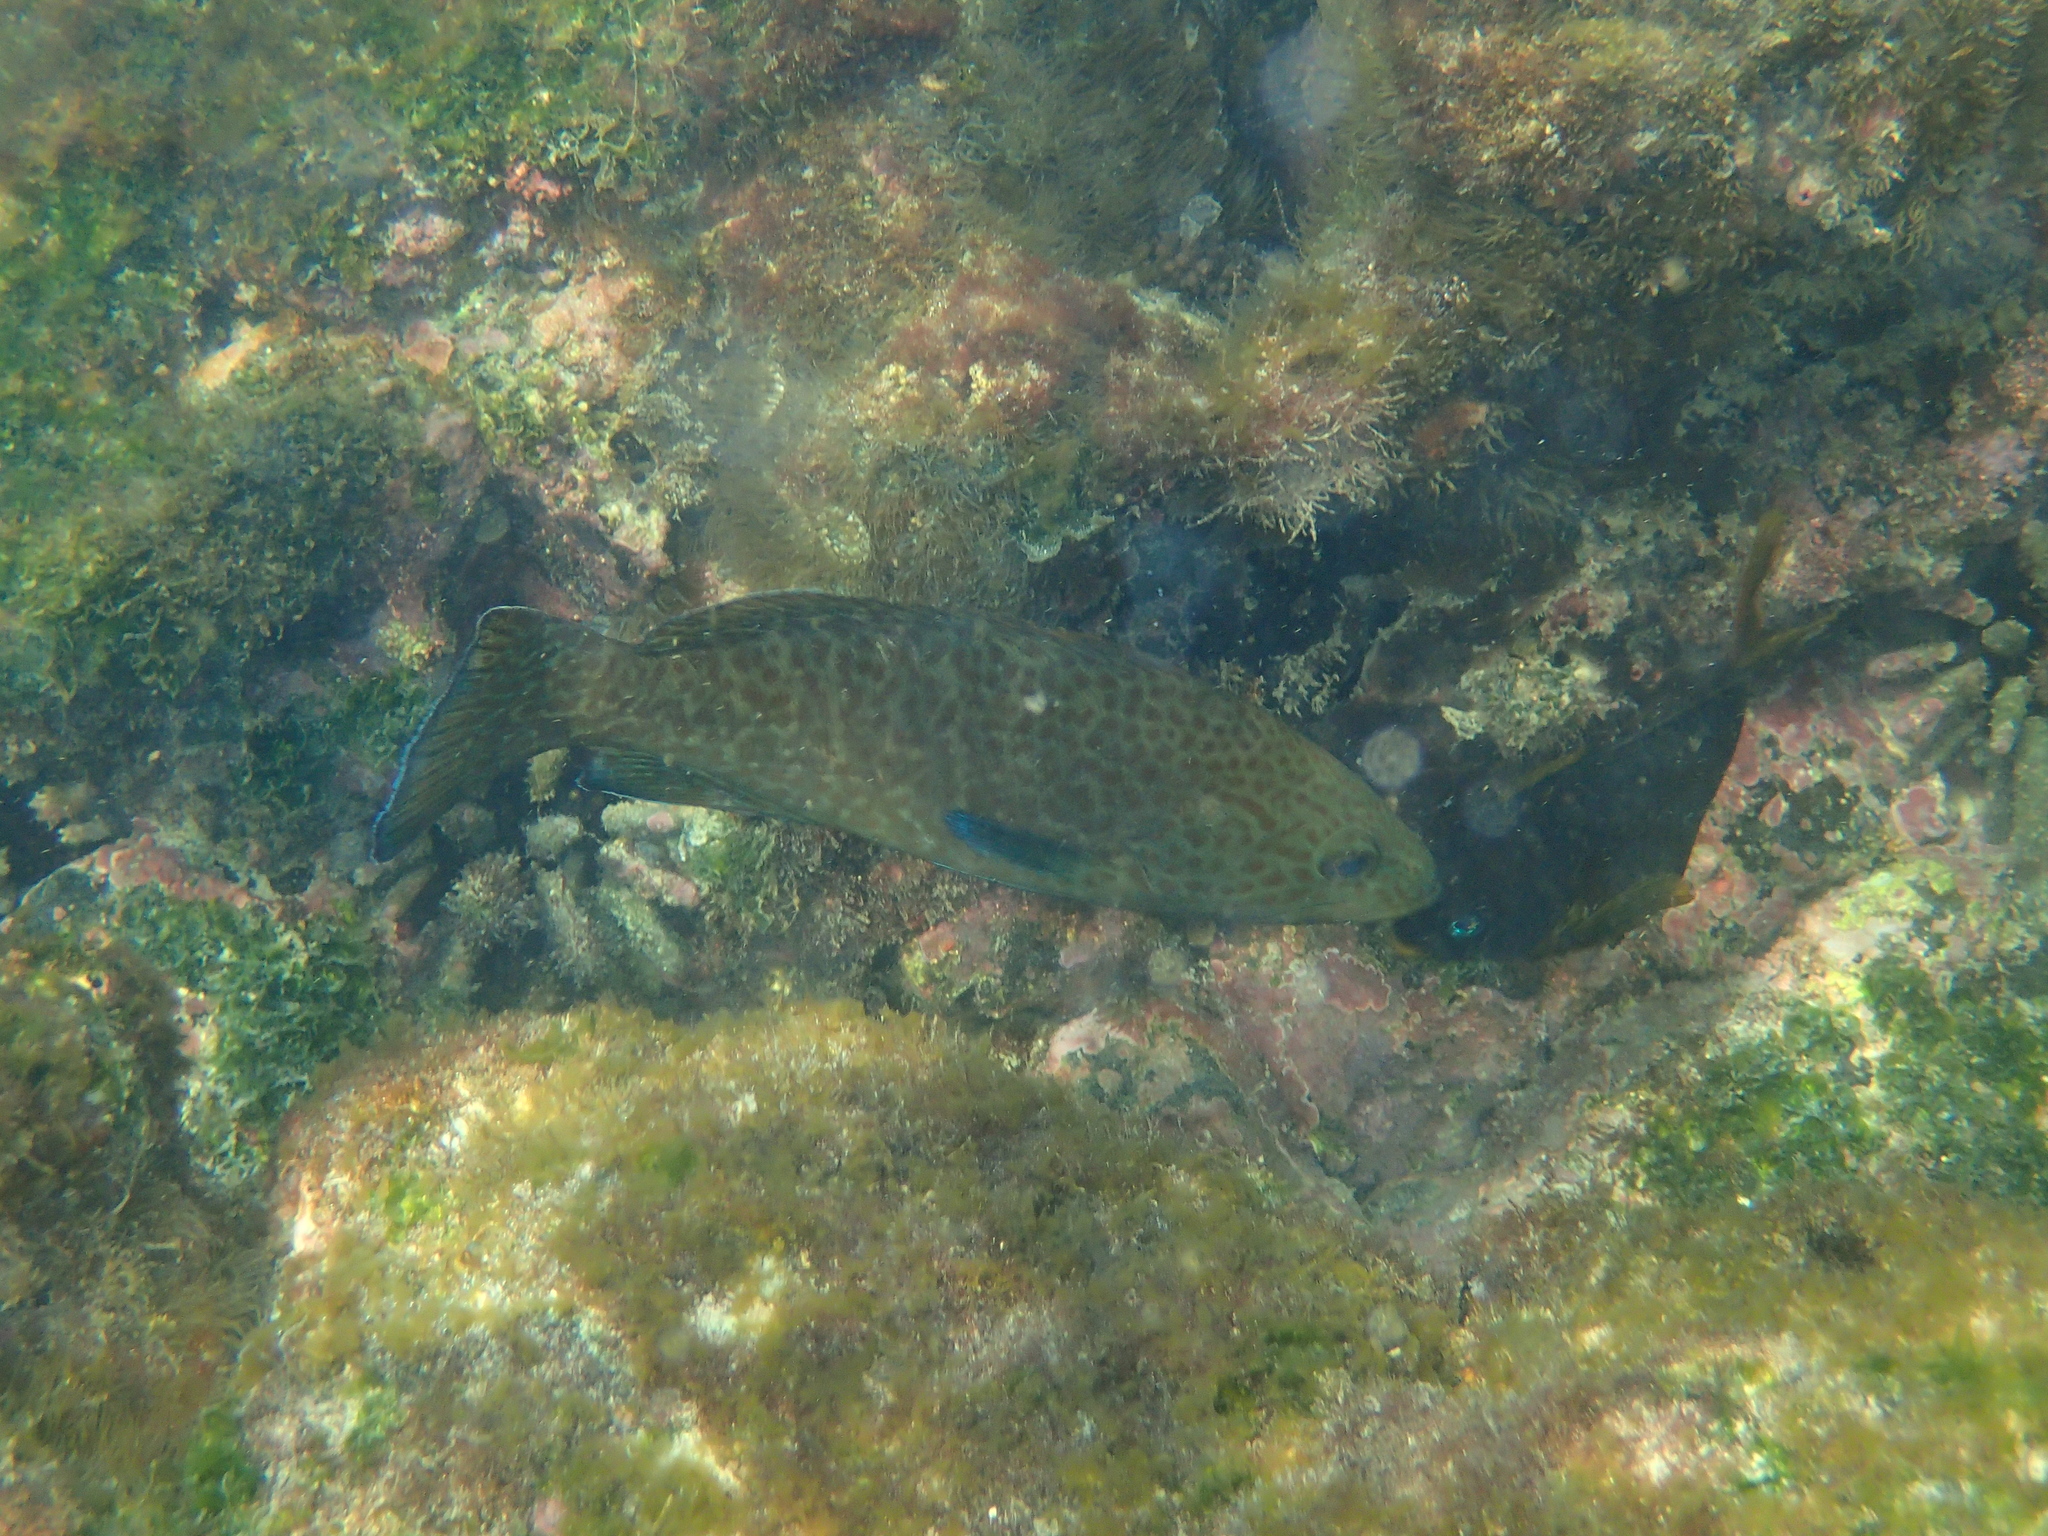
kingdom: Animalia
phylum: Chordata
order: Perciformes
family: Serranidae
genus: Epinephelus
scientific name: Epinephelus analogus
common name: Spotted cabrilla
